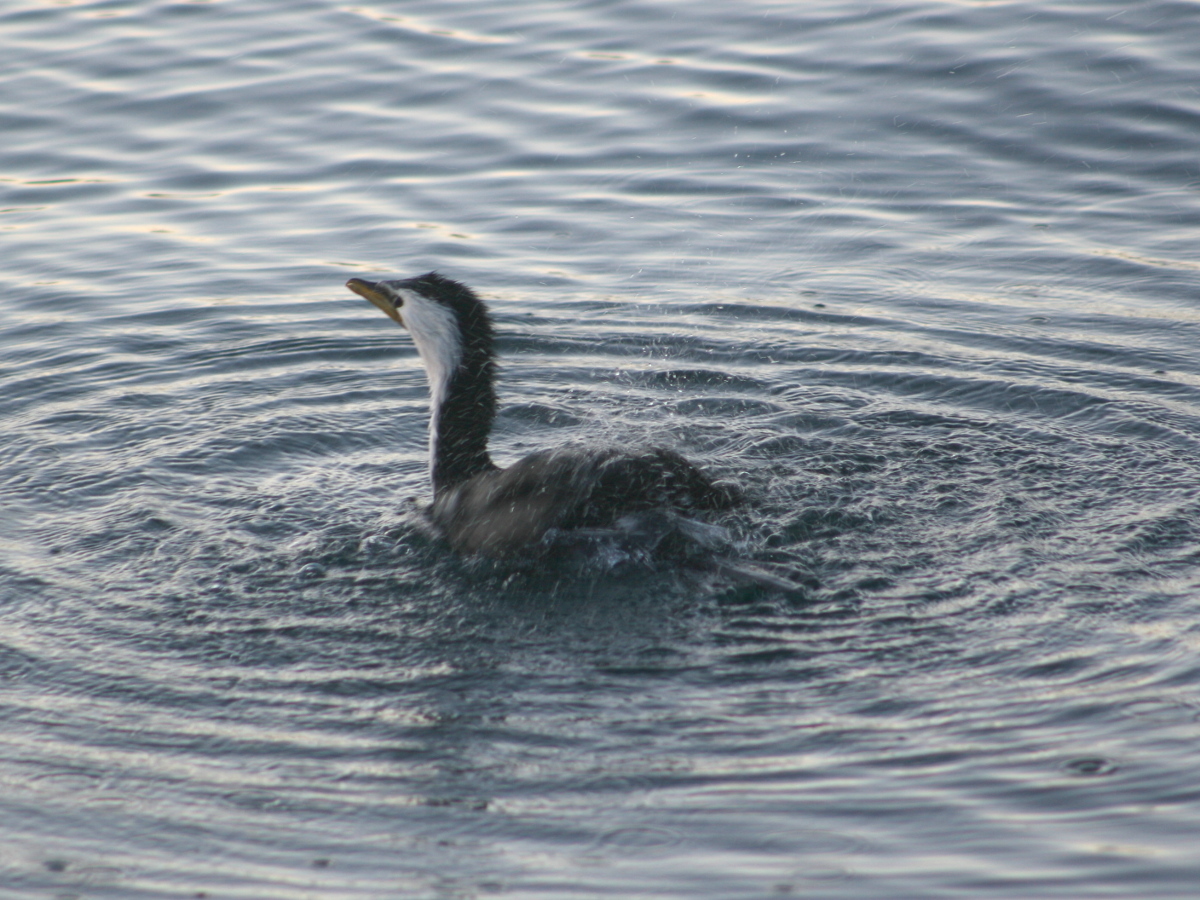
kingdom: Animalia
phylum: Chordata
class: Aves
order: Suliformes
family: Phalacrocoracidae
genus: Microcarbo
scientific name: Microcarbo melanoleucos
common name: Little pied cormorant
